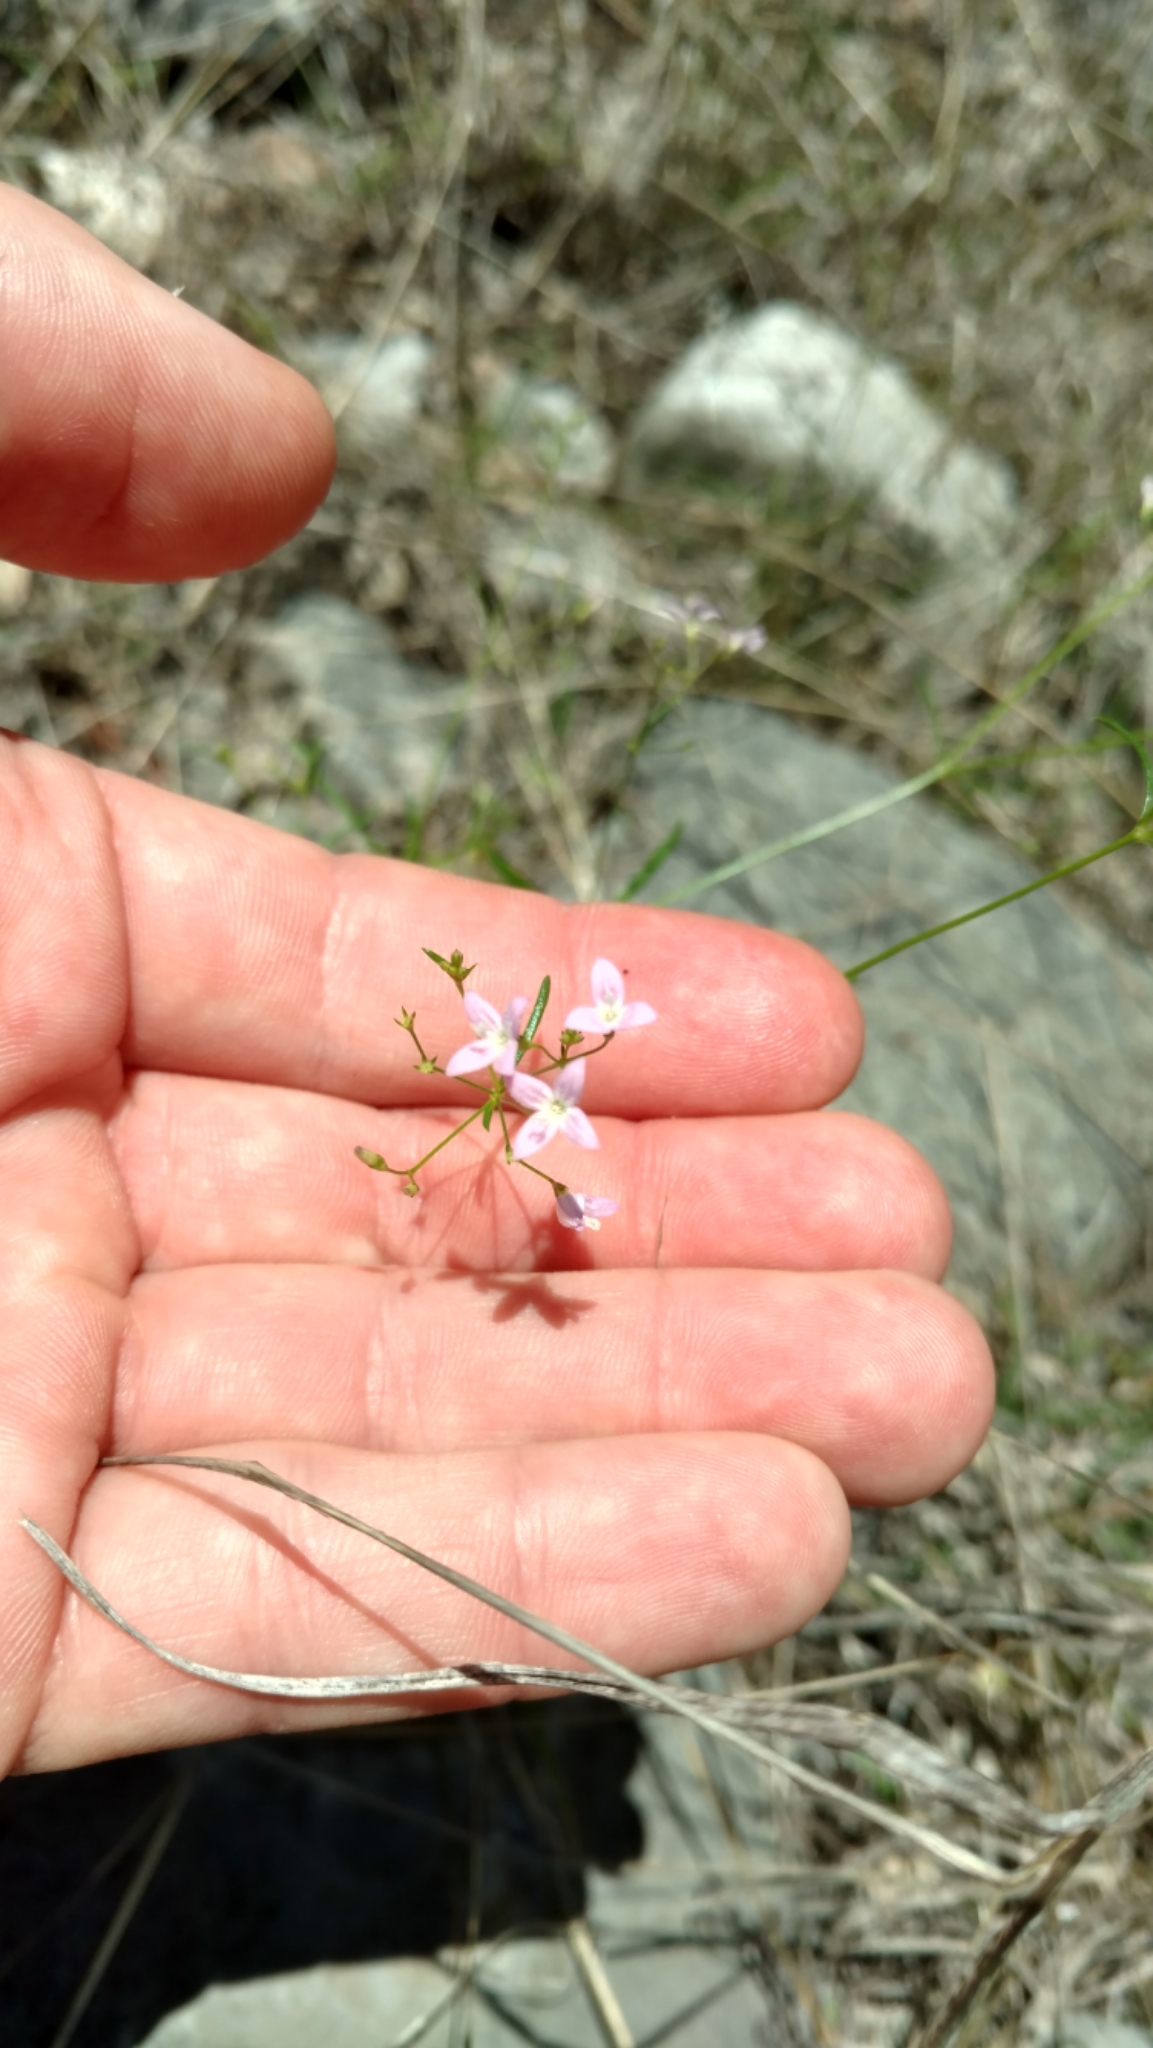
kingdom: Plantae
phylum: Tracheophyta
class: Magnoliopsida
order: Gentianales
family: Rubiaceae
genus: Stenaria
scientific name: Stenaria nigricans
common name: Diamondflowers
